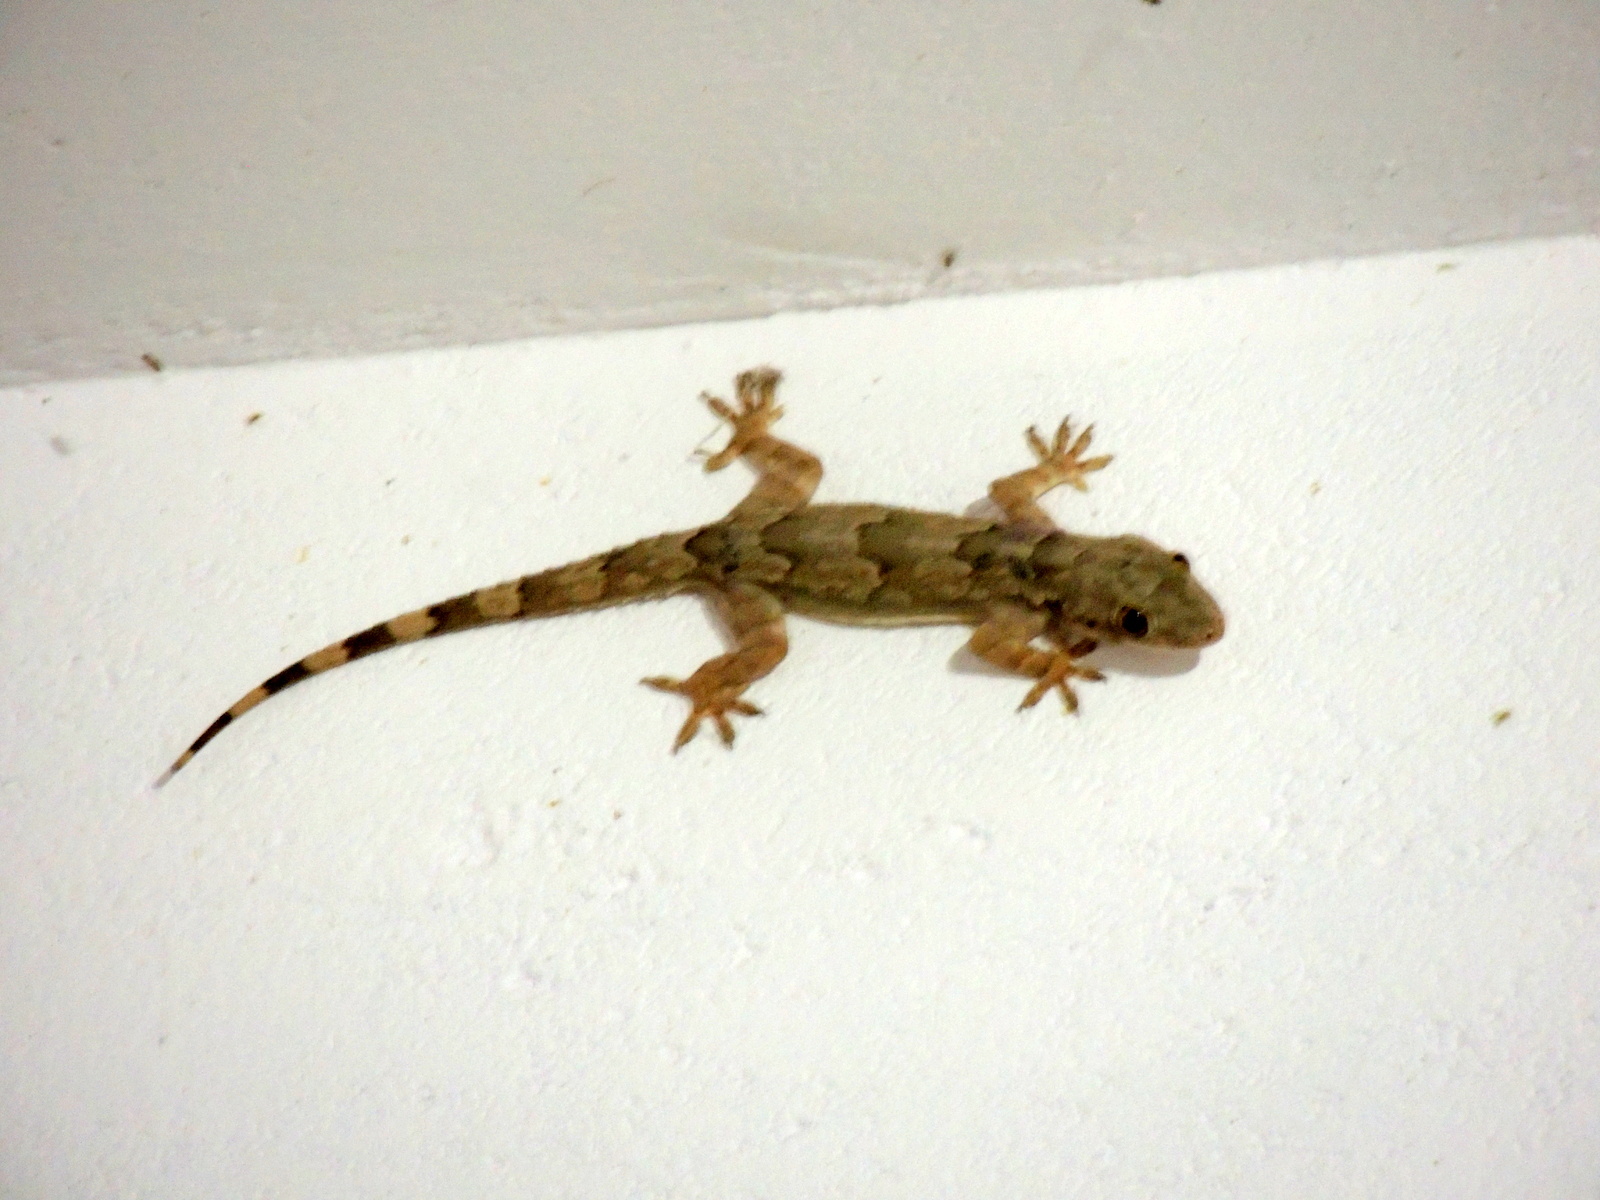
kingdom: Animalia
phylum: Chordata
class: Squamata
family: Gekkonidae
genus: Hemidactylus
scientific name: Hemidactylus leschenaultii
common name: Leschenault's leaf-toed gecko
